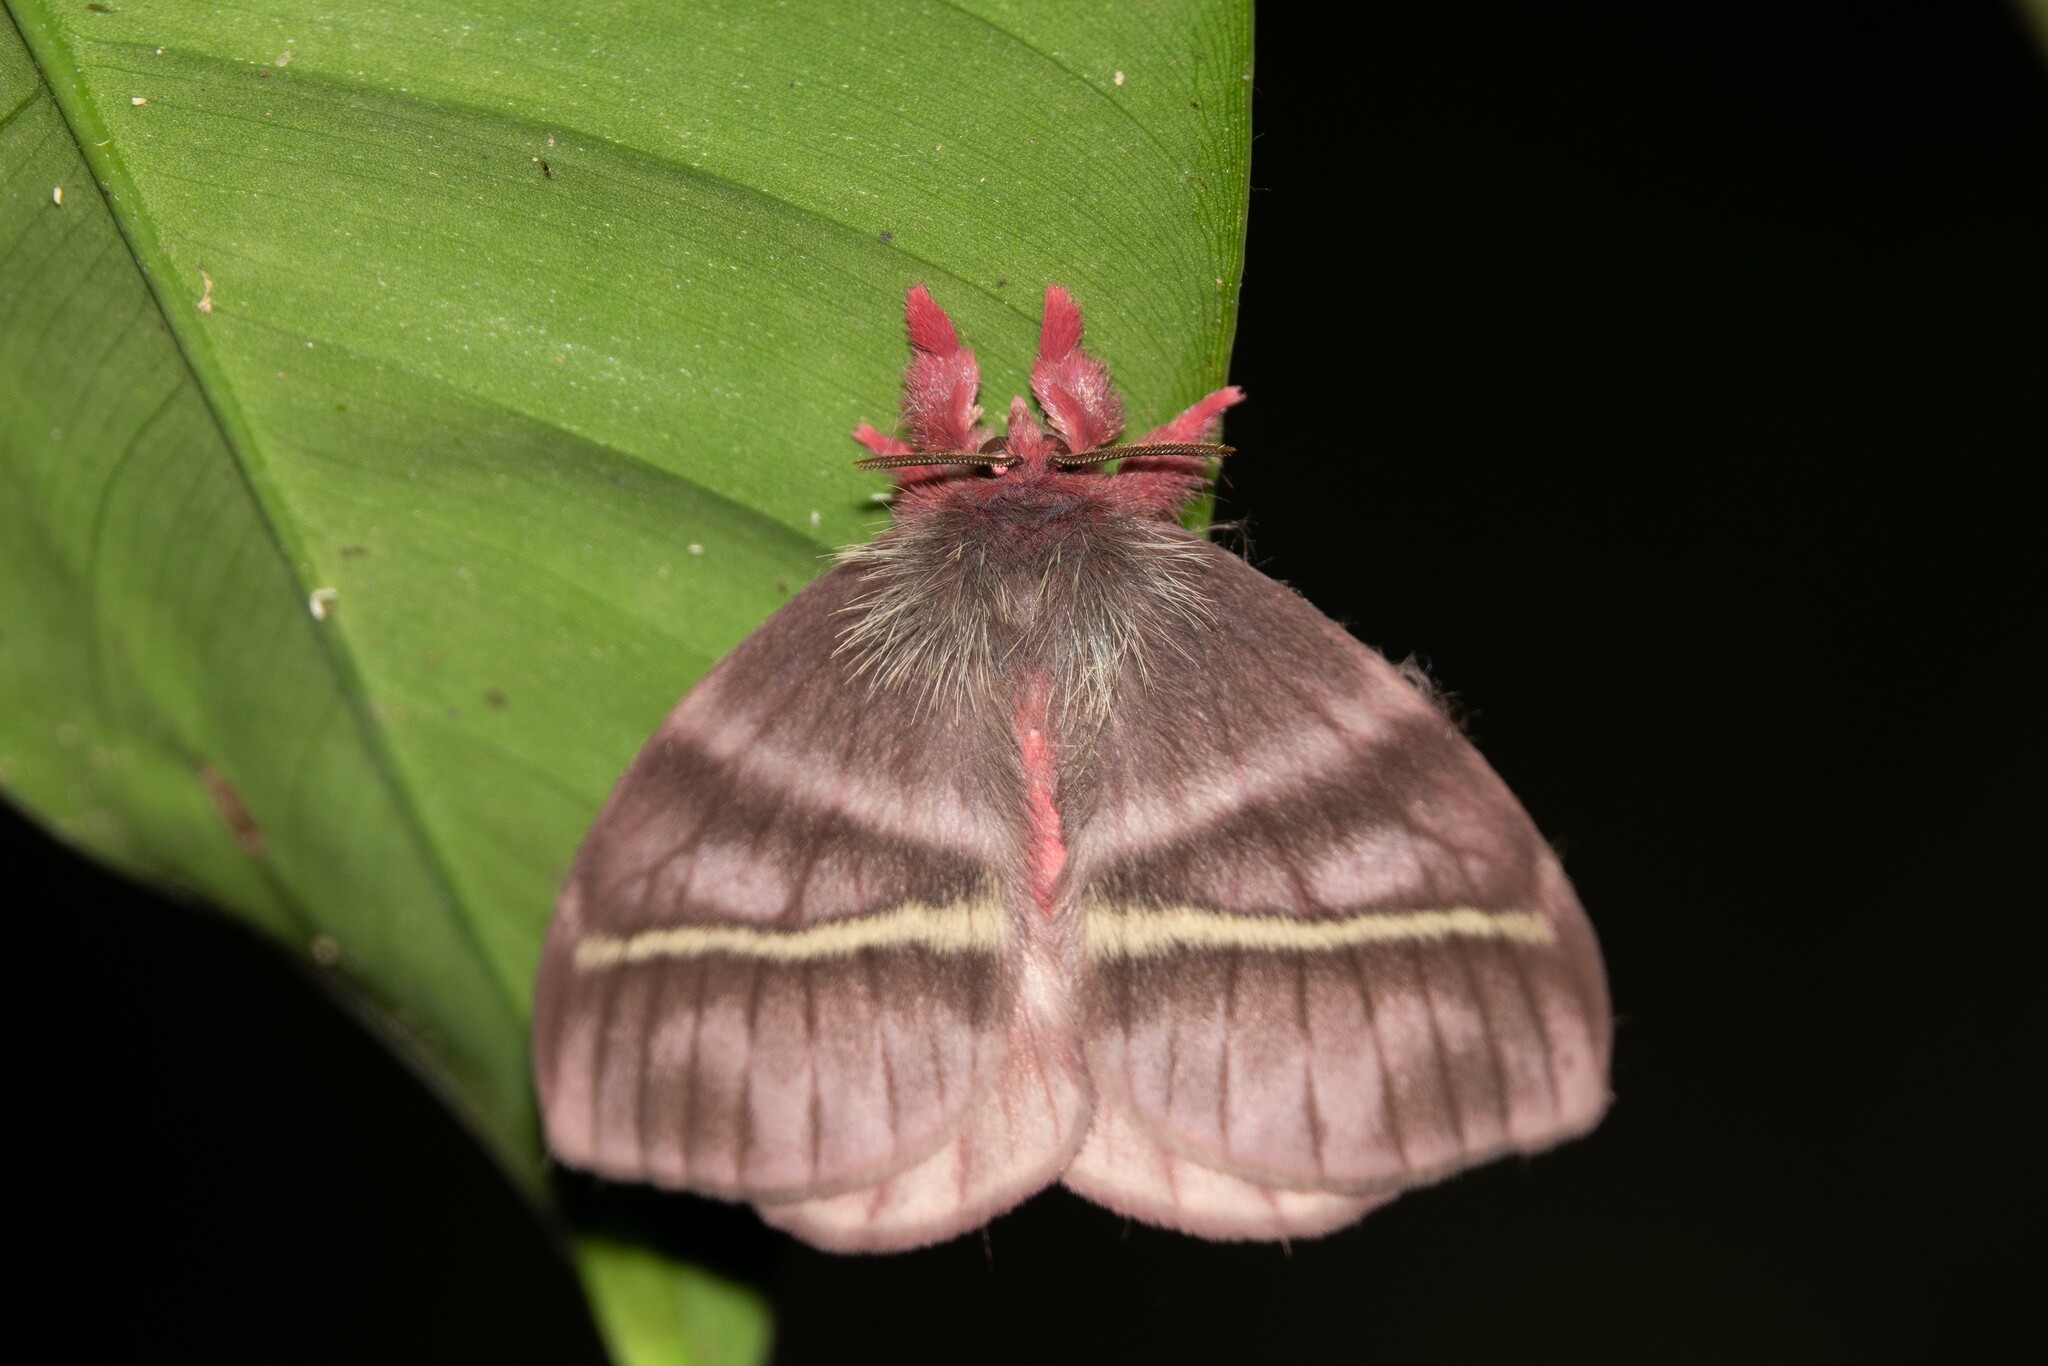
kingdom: Animalia
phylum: Arthropoda
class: Insecta
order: Lepidoptera
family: Saturniidae
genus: Hylesiopsis
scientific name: Hylesiopsis festiva
